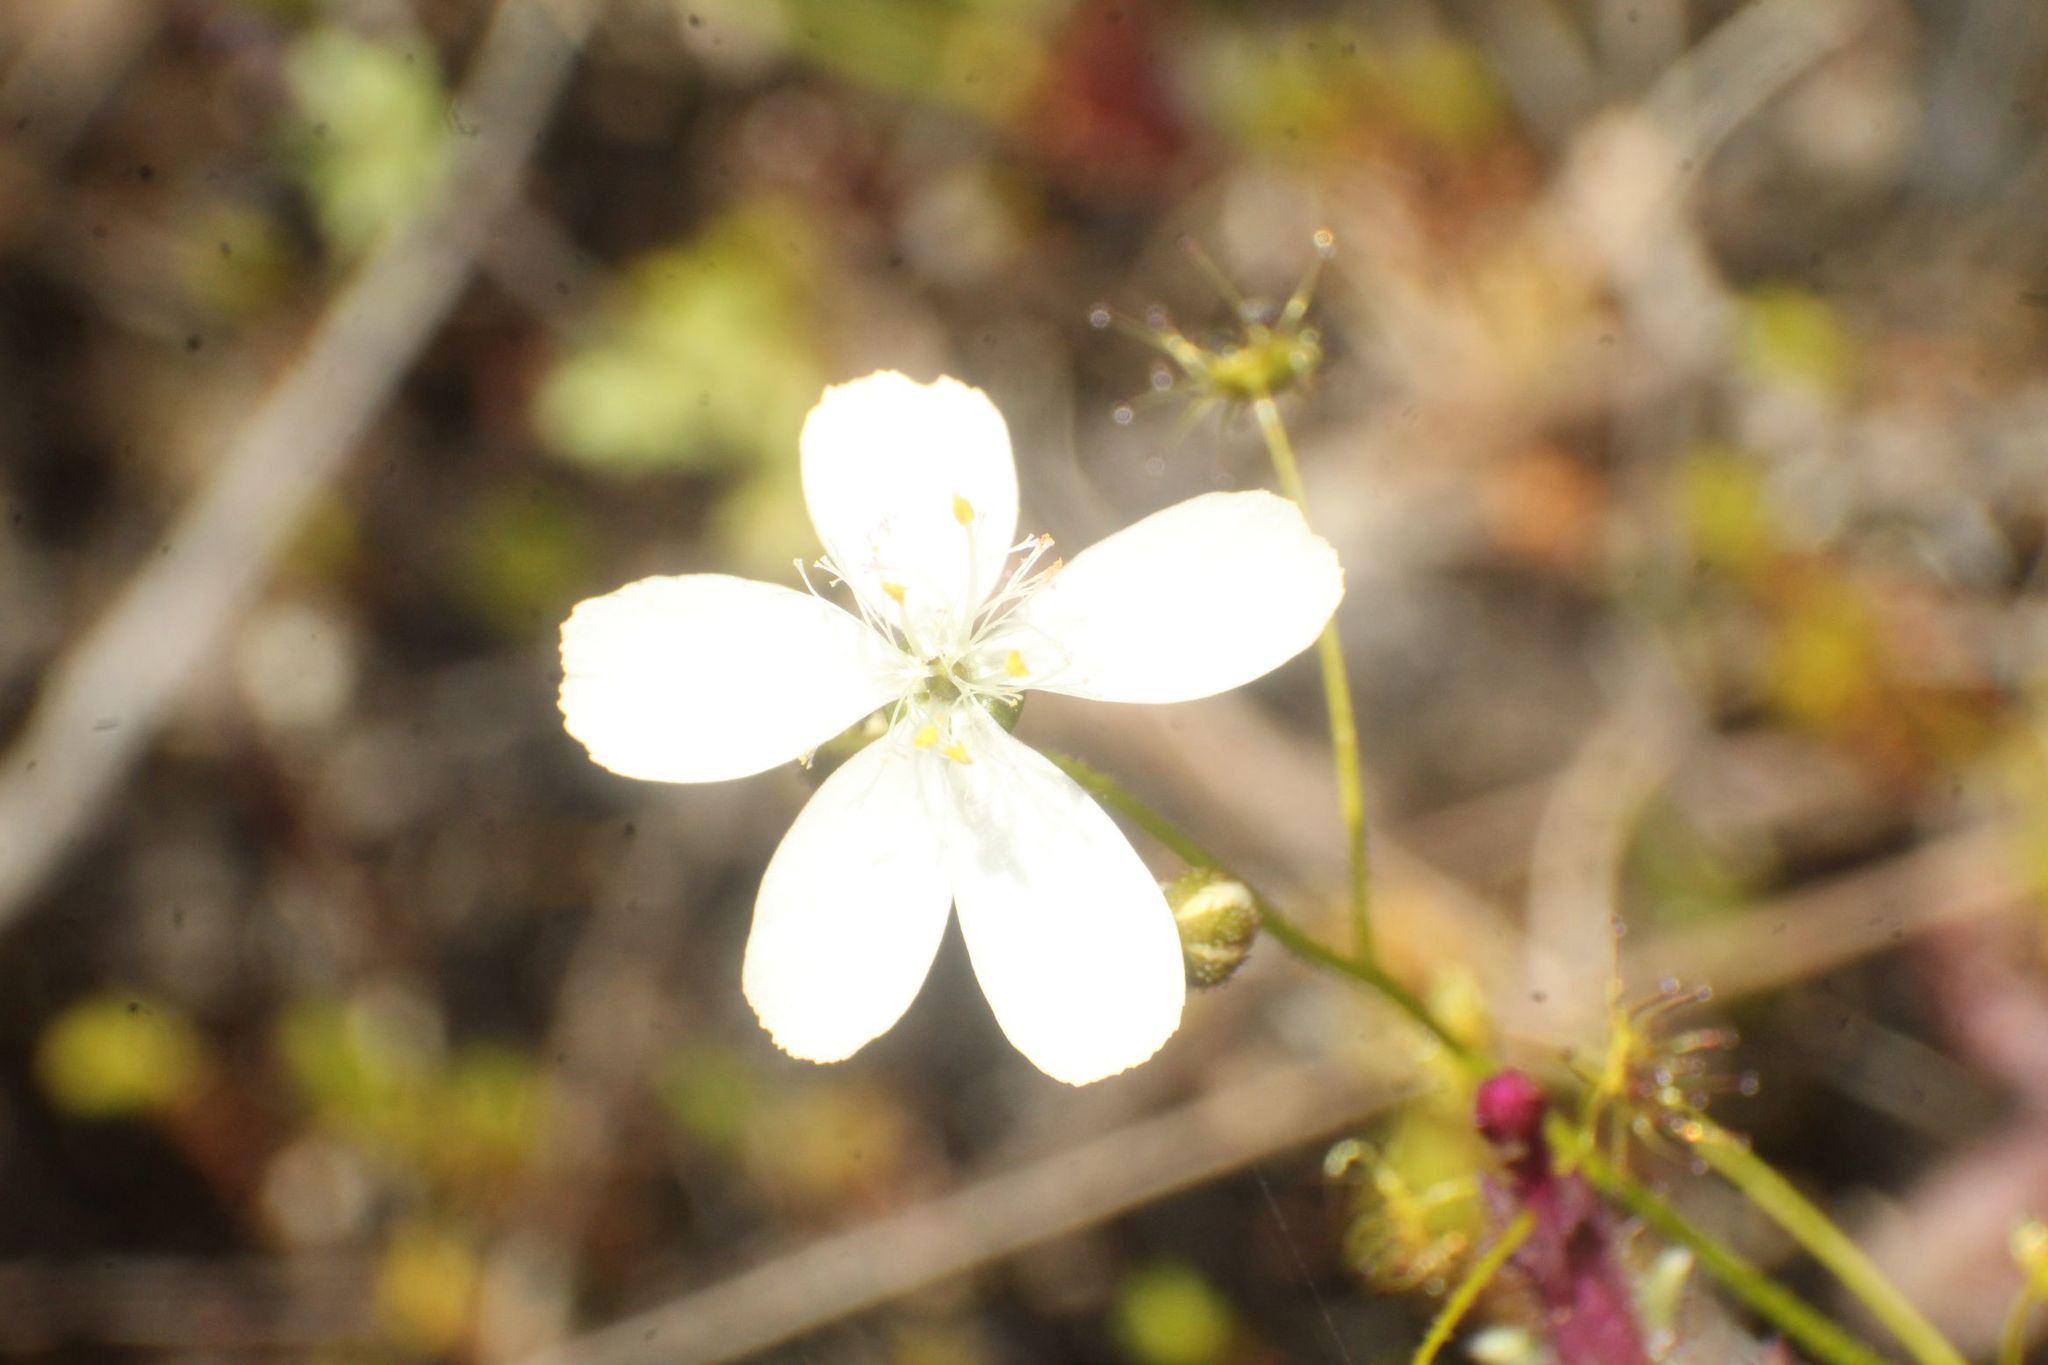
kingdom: Plantae
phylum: Tracheophyta
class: Magnoliopsida
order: Caryophyllales
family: Droseraceae
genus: Drosera
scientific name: Drosera modesta
